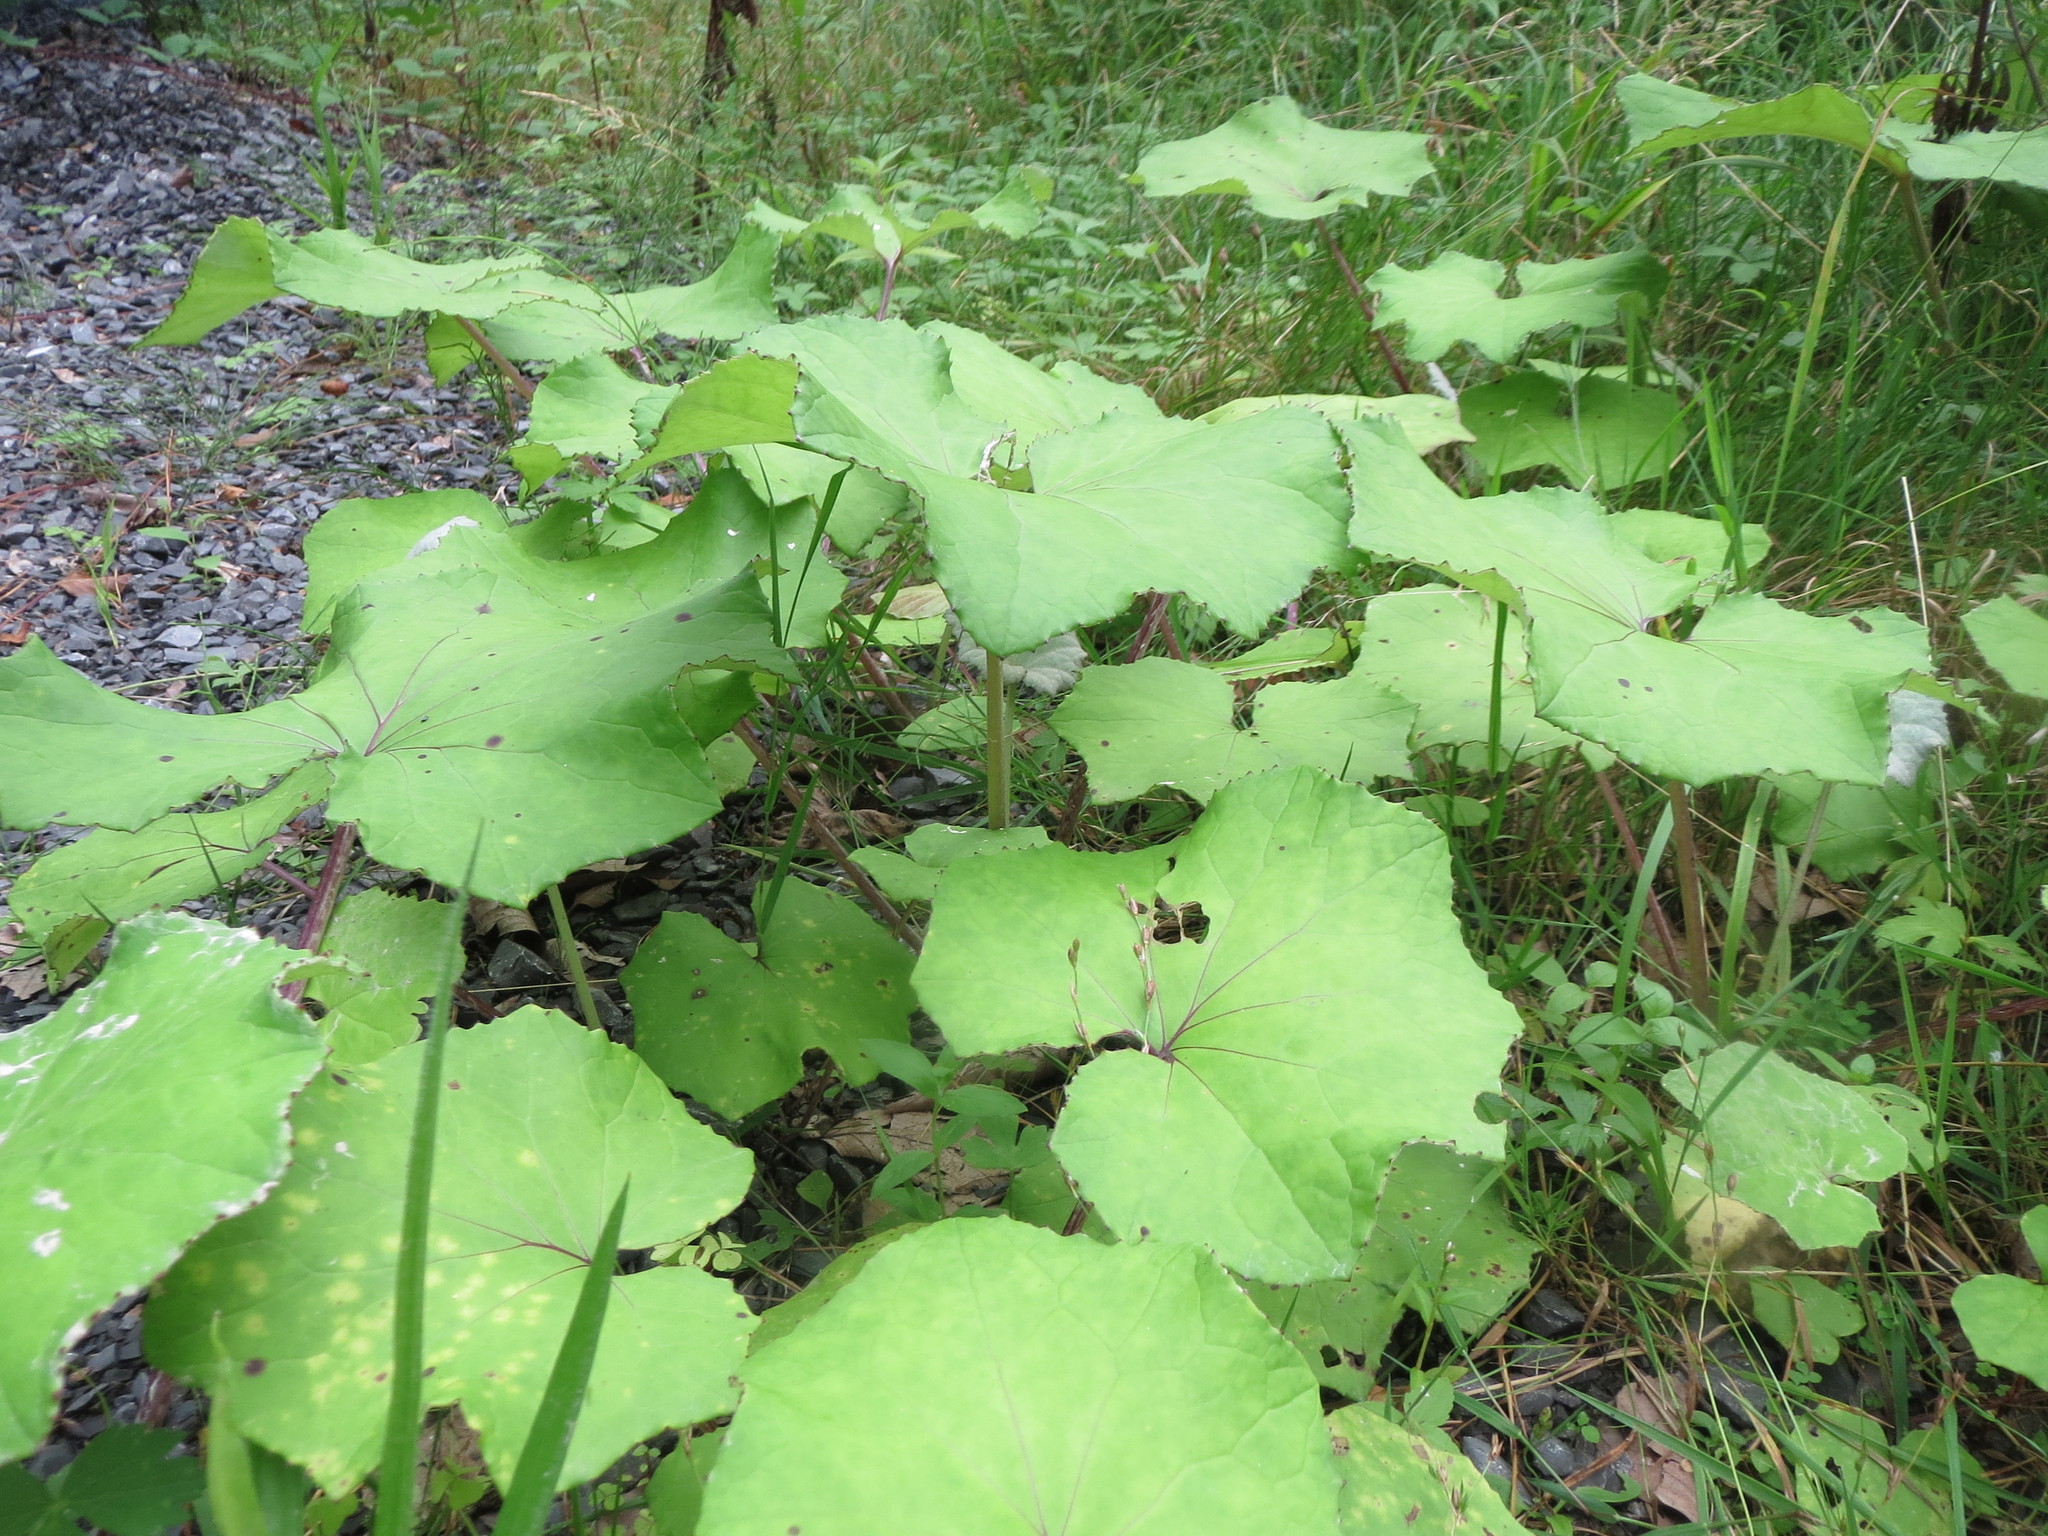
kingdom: Plantae
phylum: Tracheophyta
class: Magnoliopsida
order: Asterales
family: Asteraceae
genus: Tussilago
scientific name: Tussilago farfara
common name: Coltsfoot
